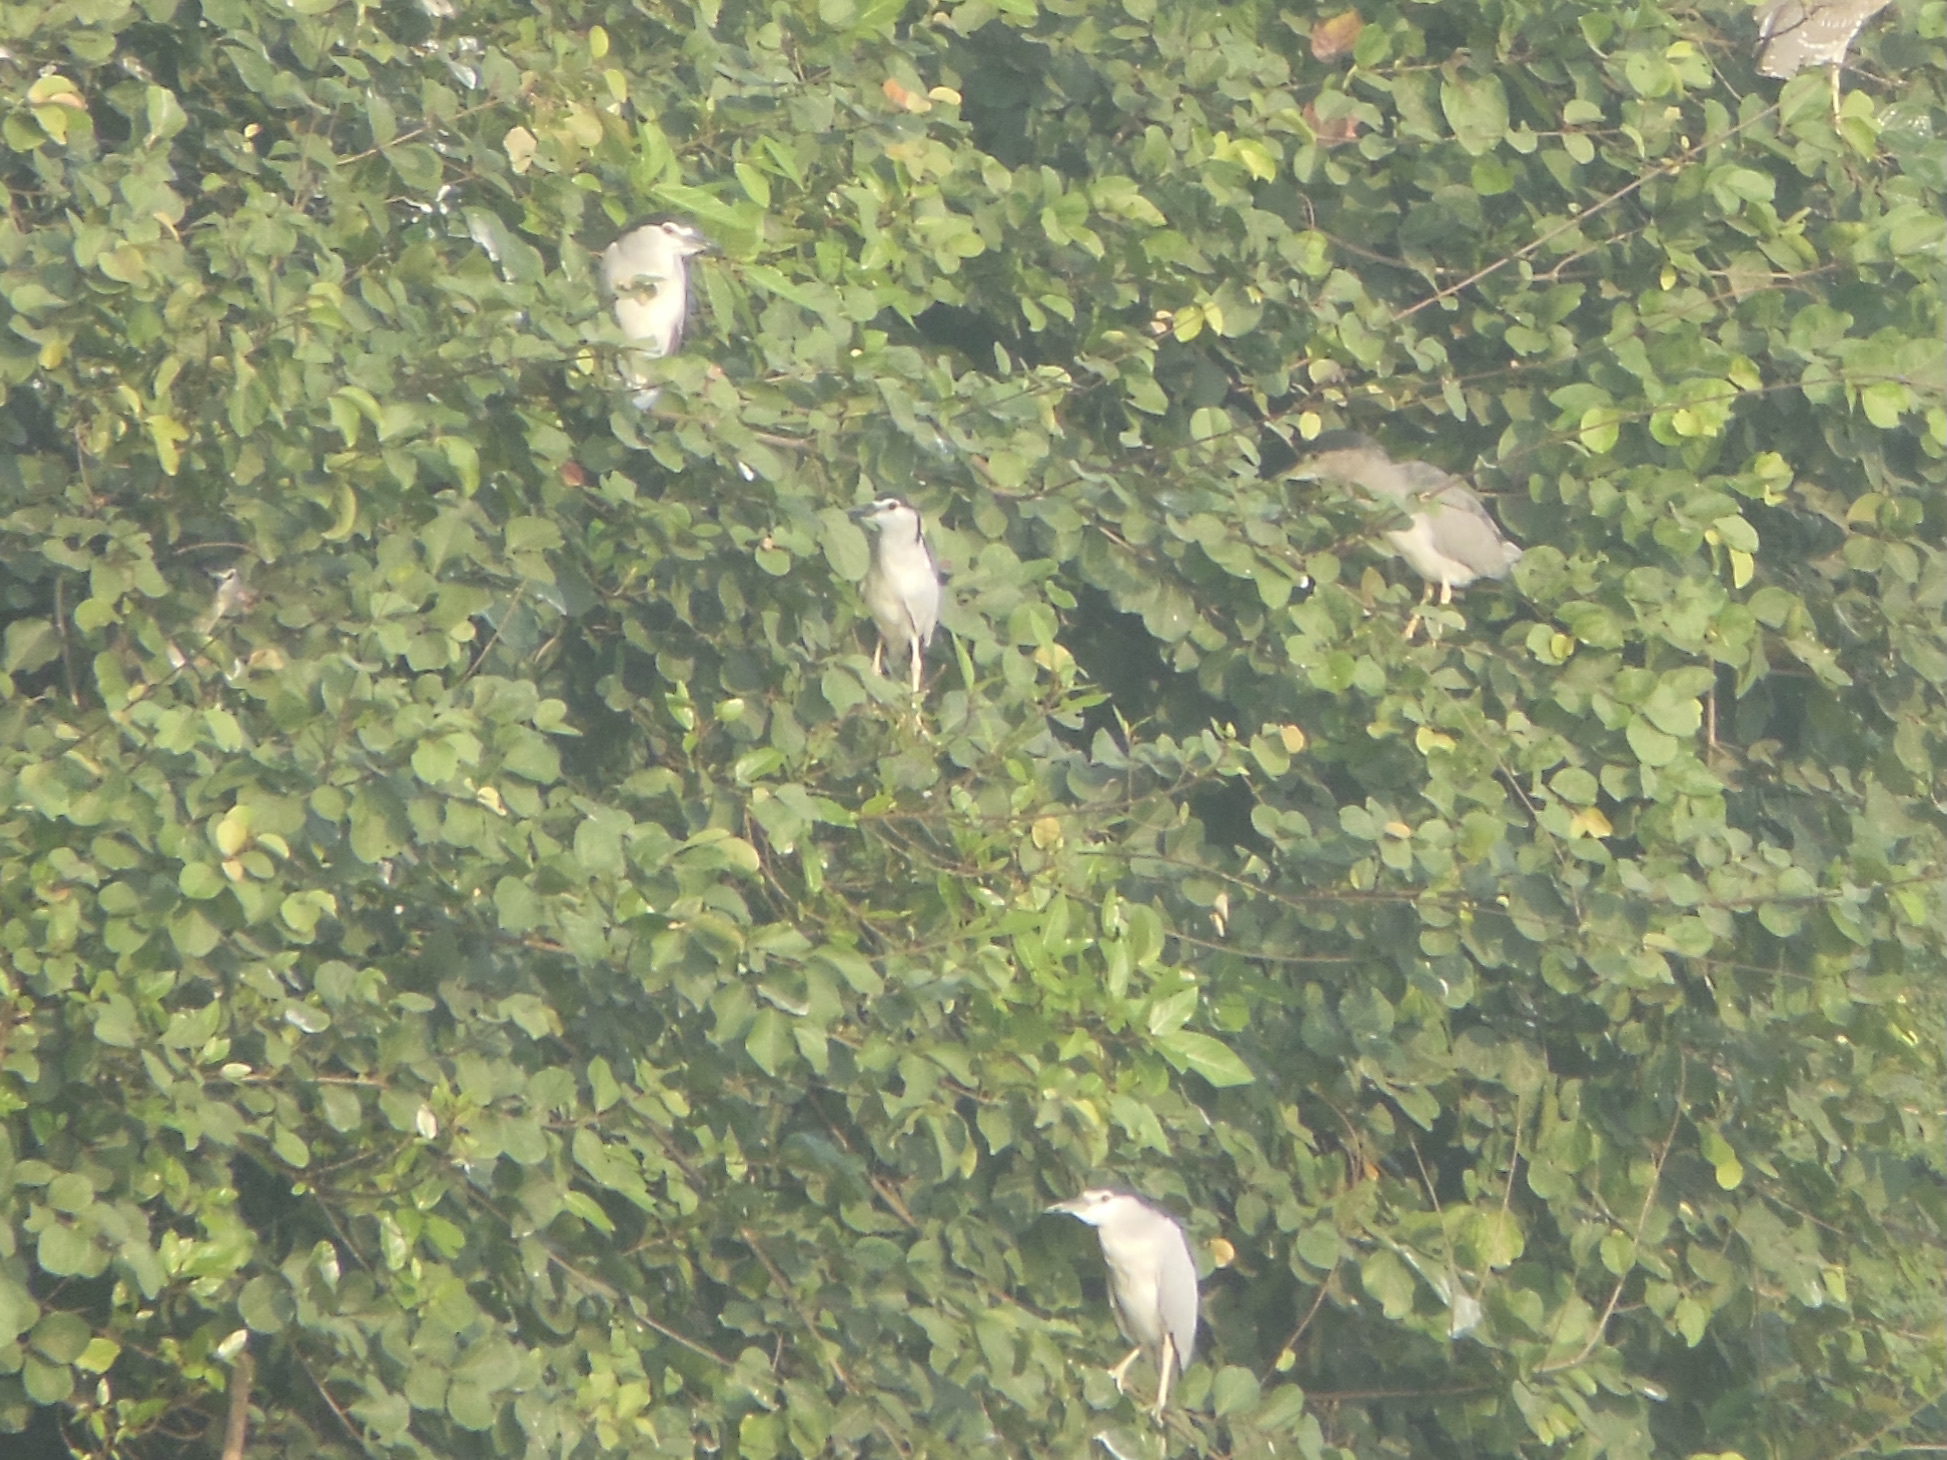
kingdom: Animalia
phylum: Chordata
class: Aves
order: Pelecaniformes
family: Ardeidae
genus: Nycticorax
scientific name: Nycticorax nycticorax
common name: Black-crowned night heron
